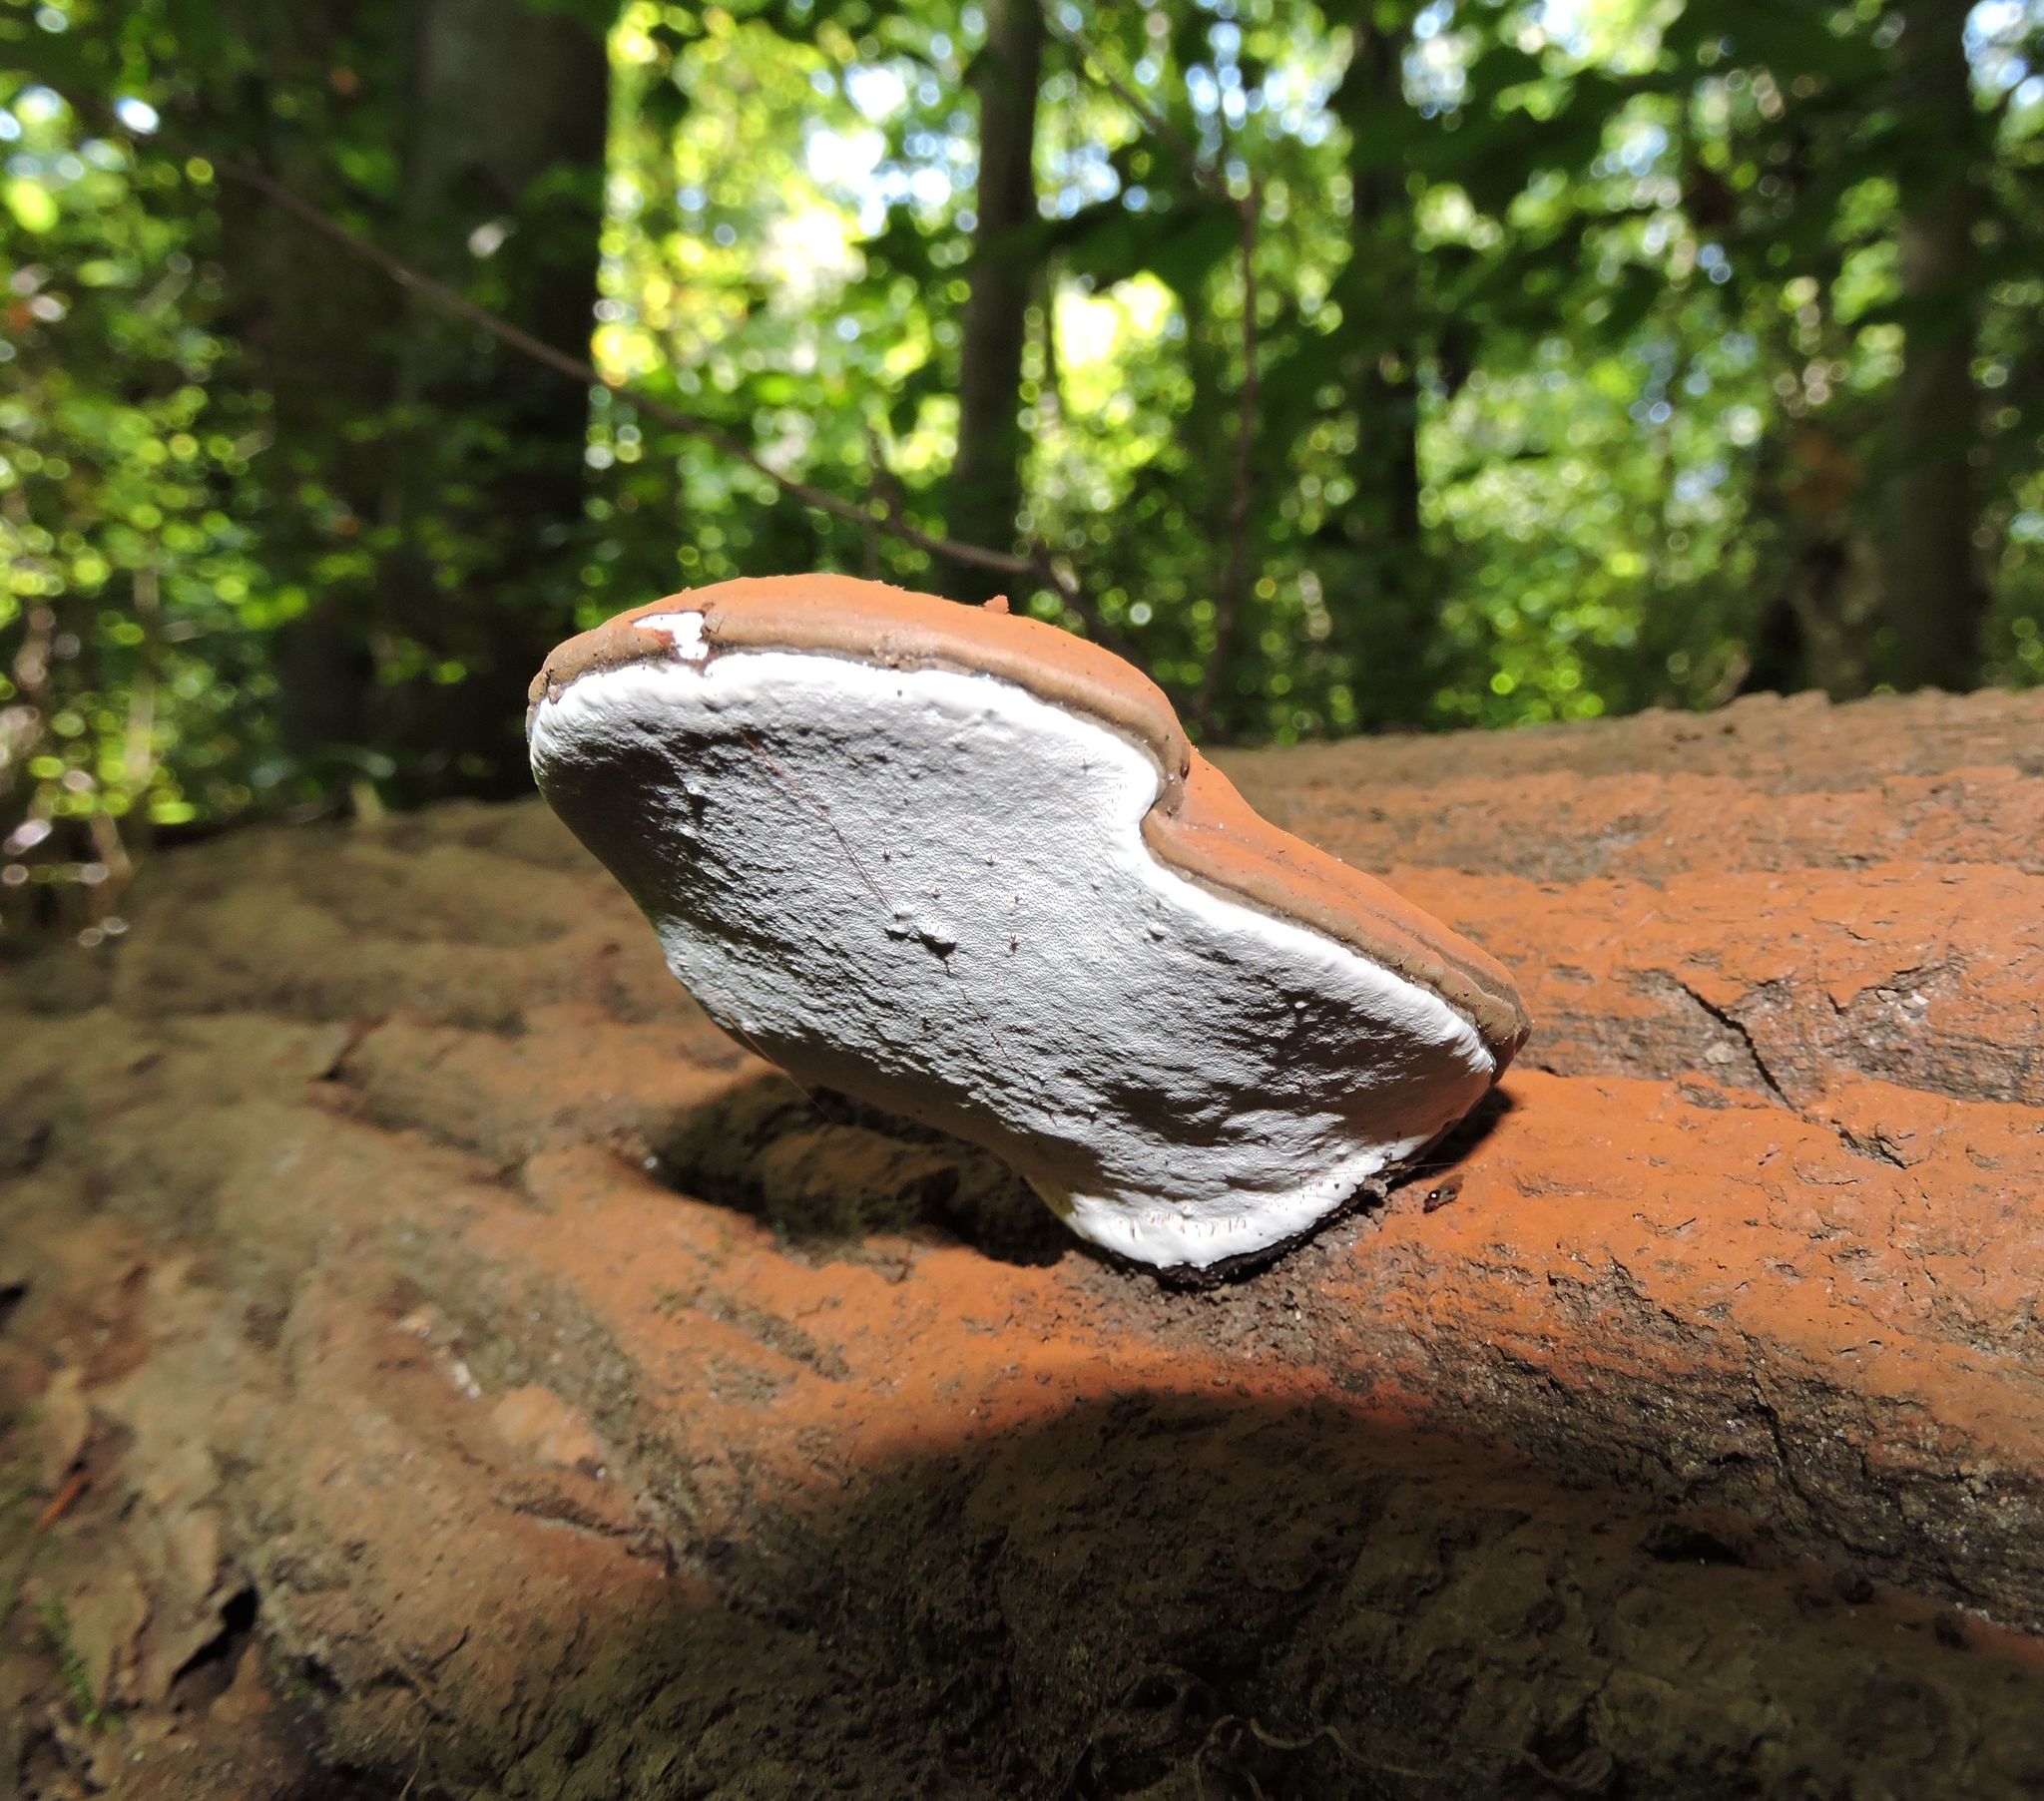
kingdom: Fungi
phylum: Basidiomycota
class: Agaricomycetes
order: Polyporales
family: Polyporaceae
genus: Ganoderma
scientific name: Ganoderma applanatum
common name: Artist's bracket
